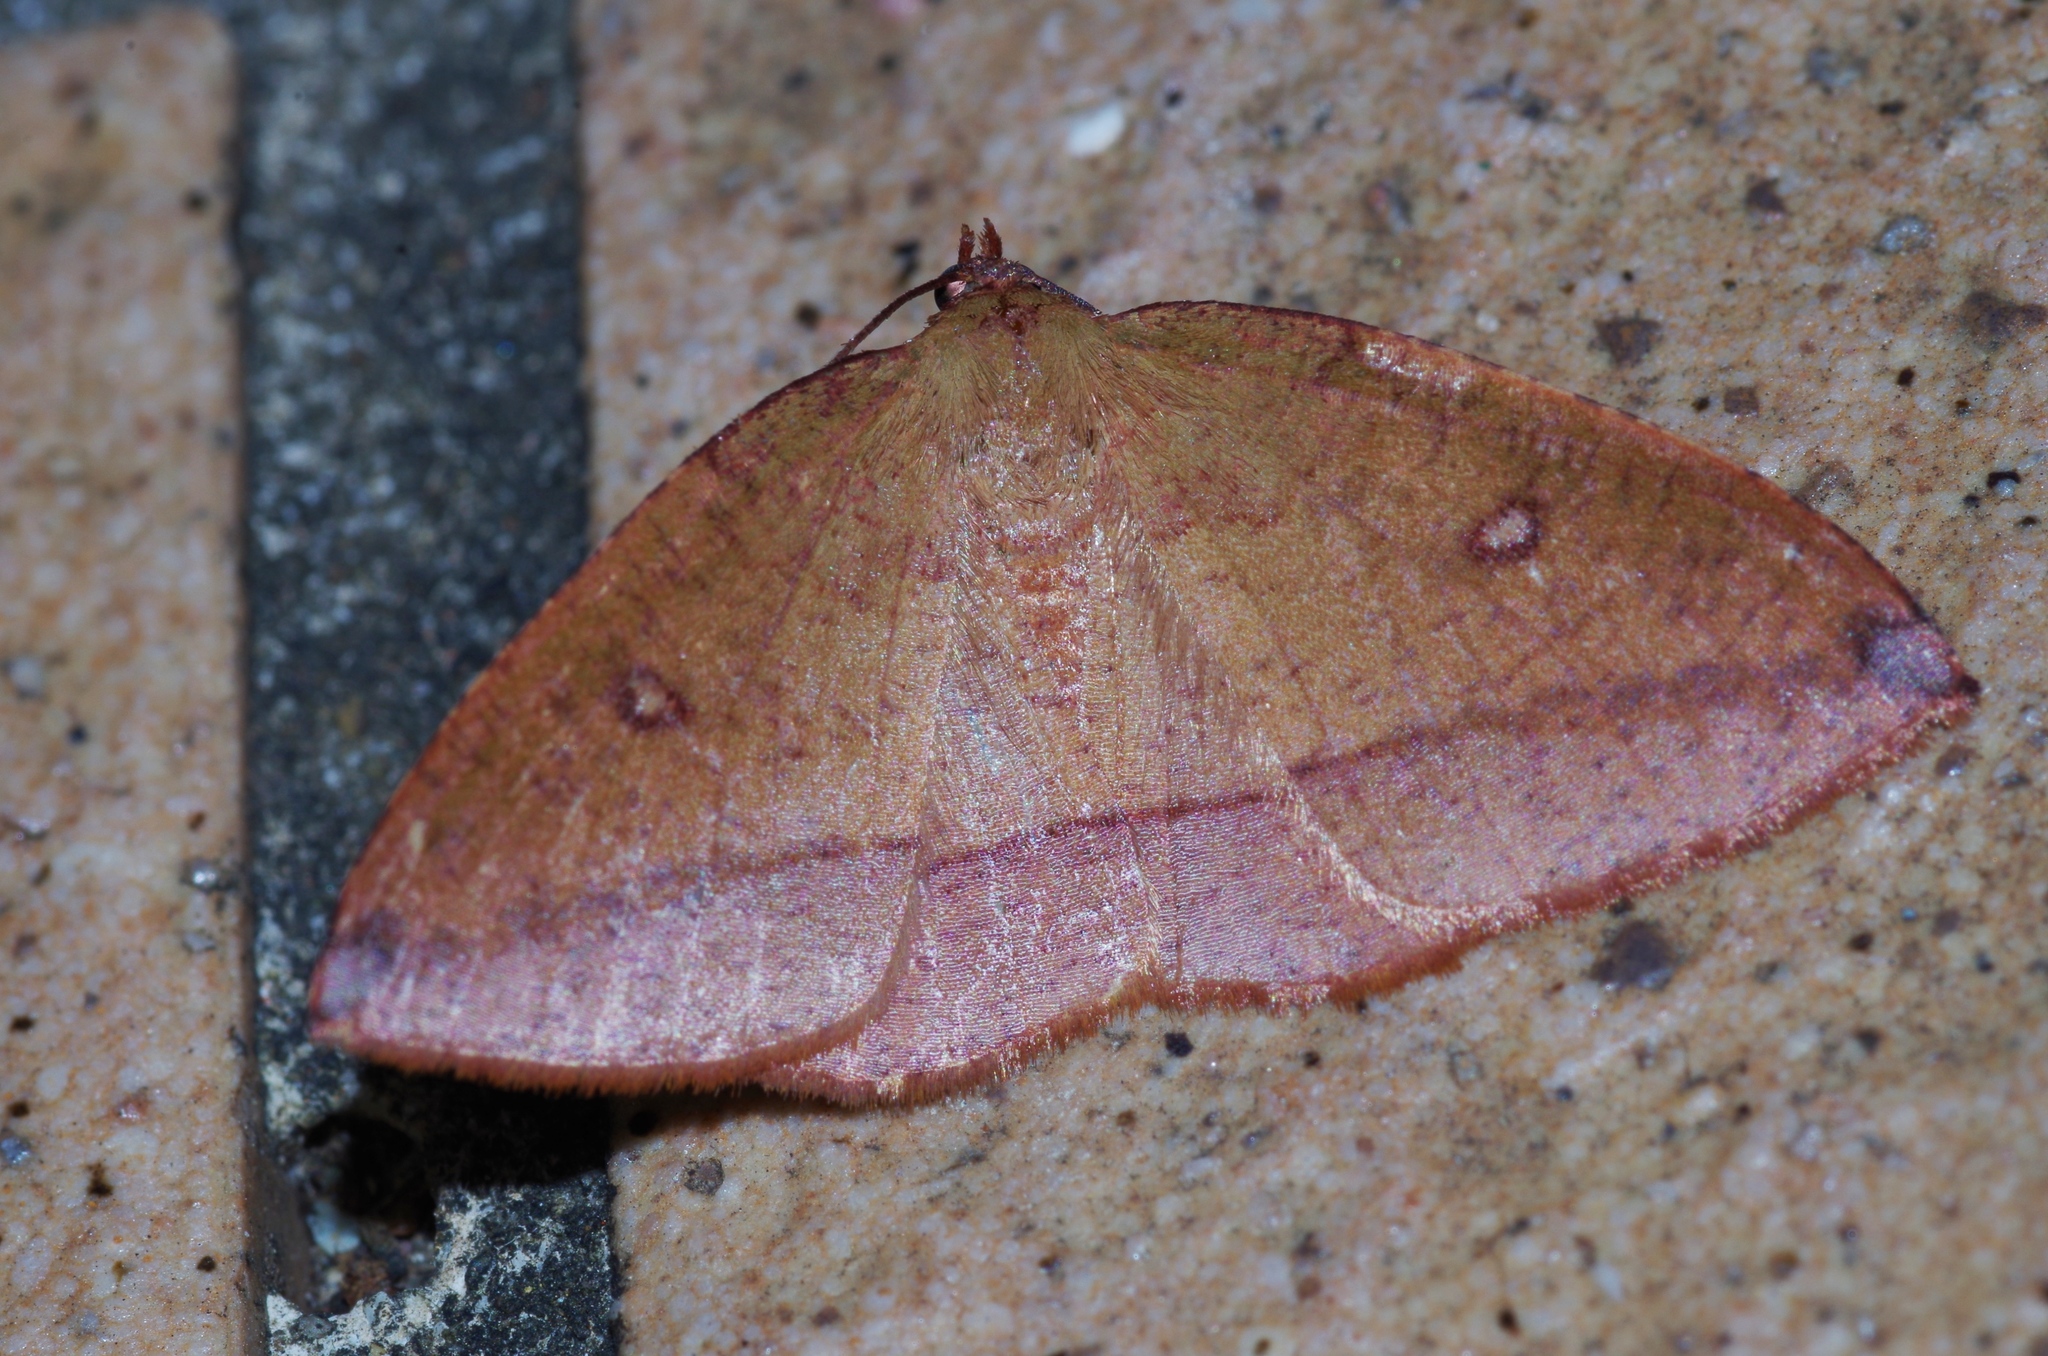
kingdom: Animalia
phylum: Arthropoda
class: Insecta
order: Lepidoptera
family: Geometridae
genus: Heterolocha
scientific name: Heterolocha aristonaria
